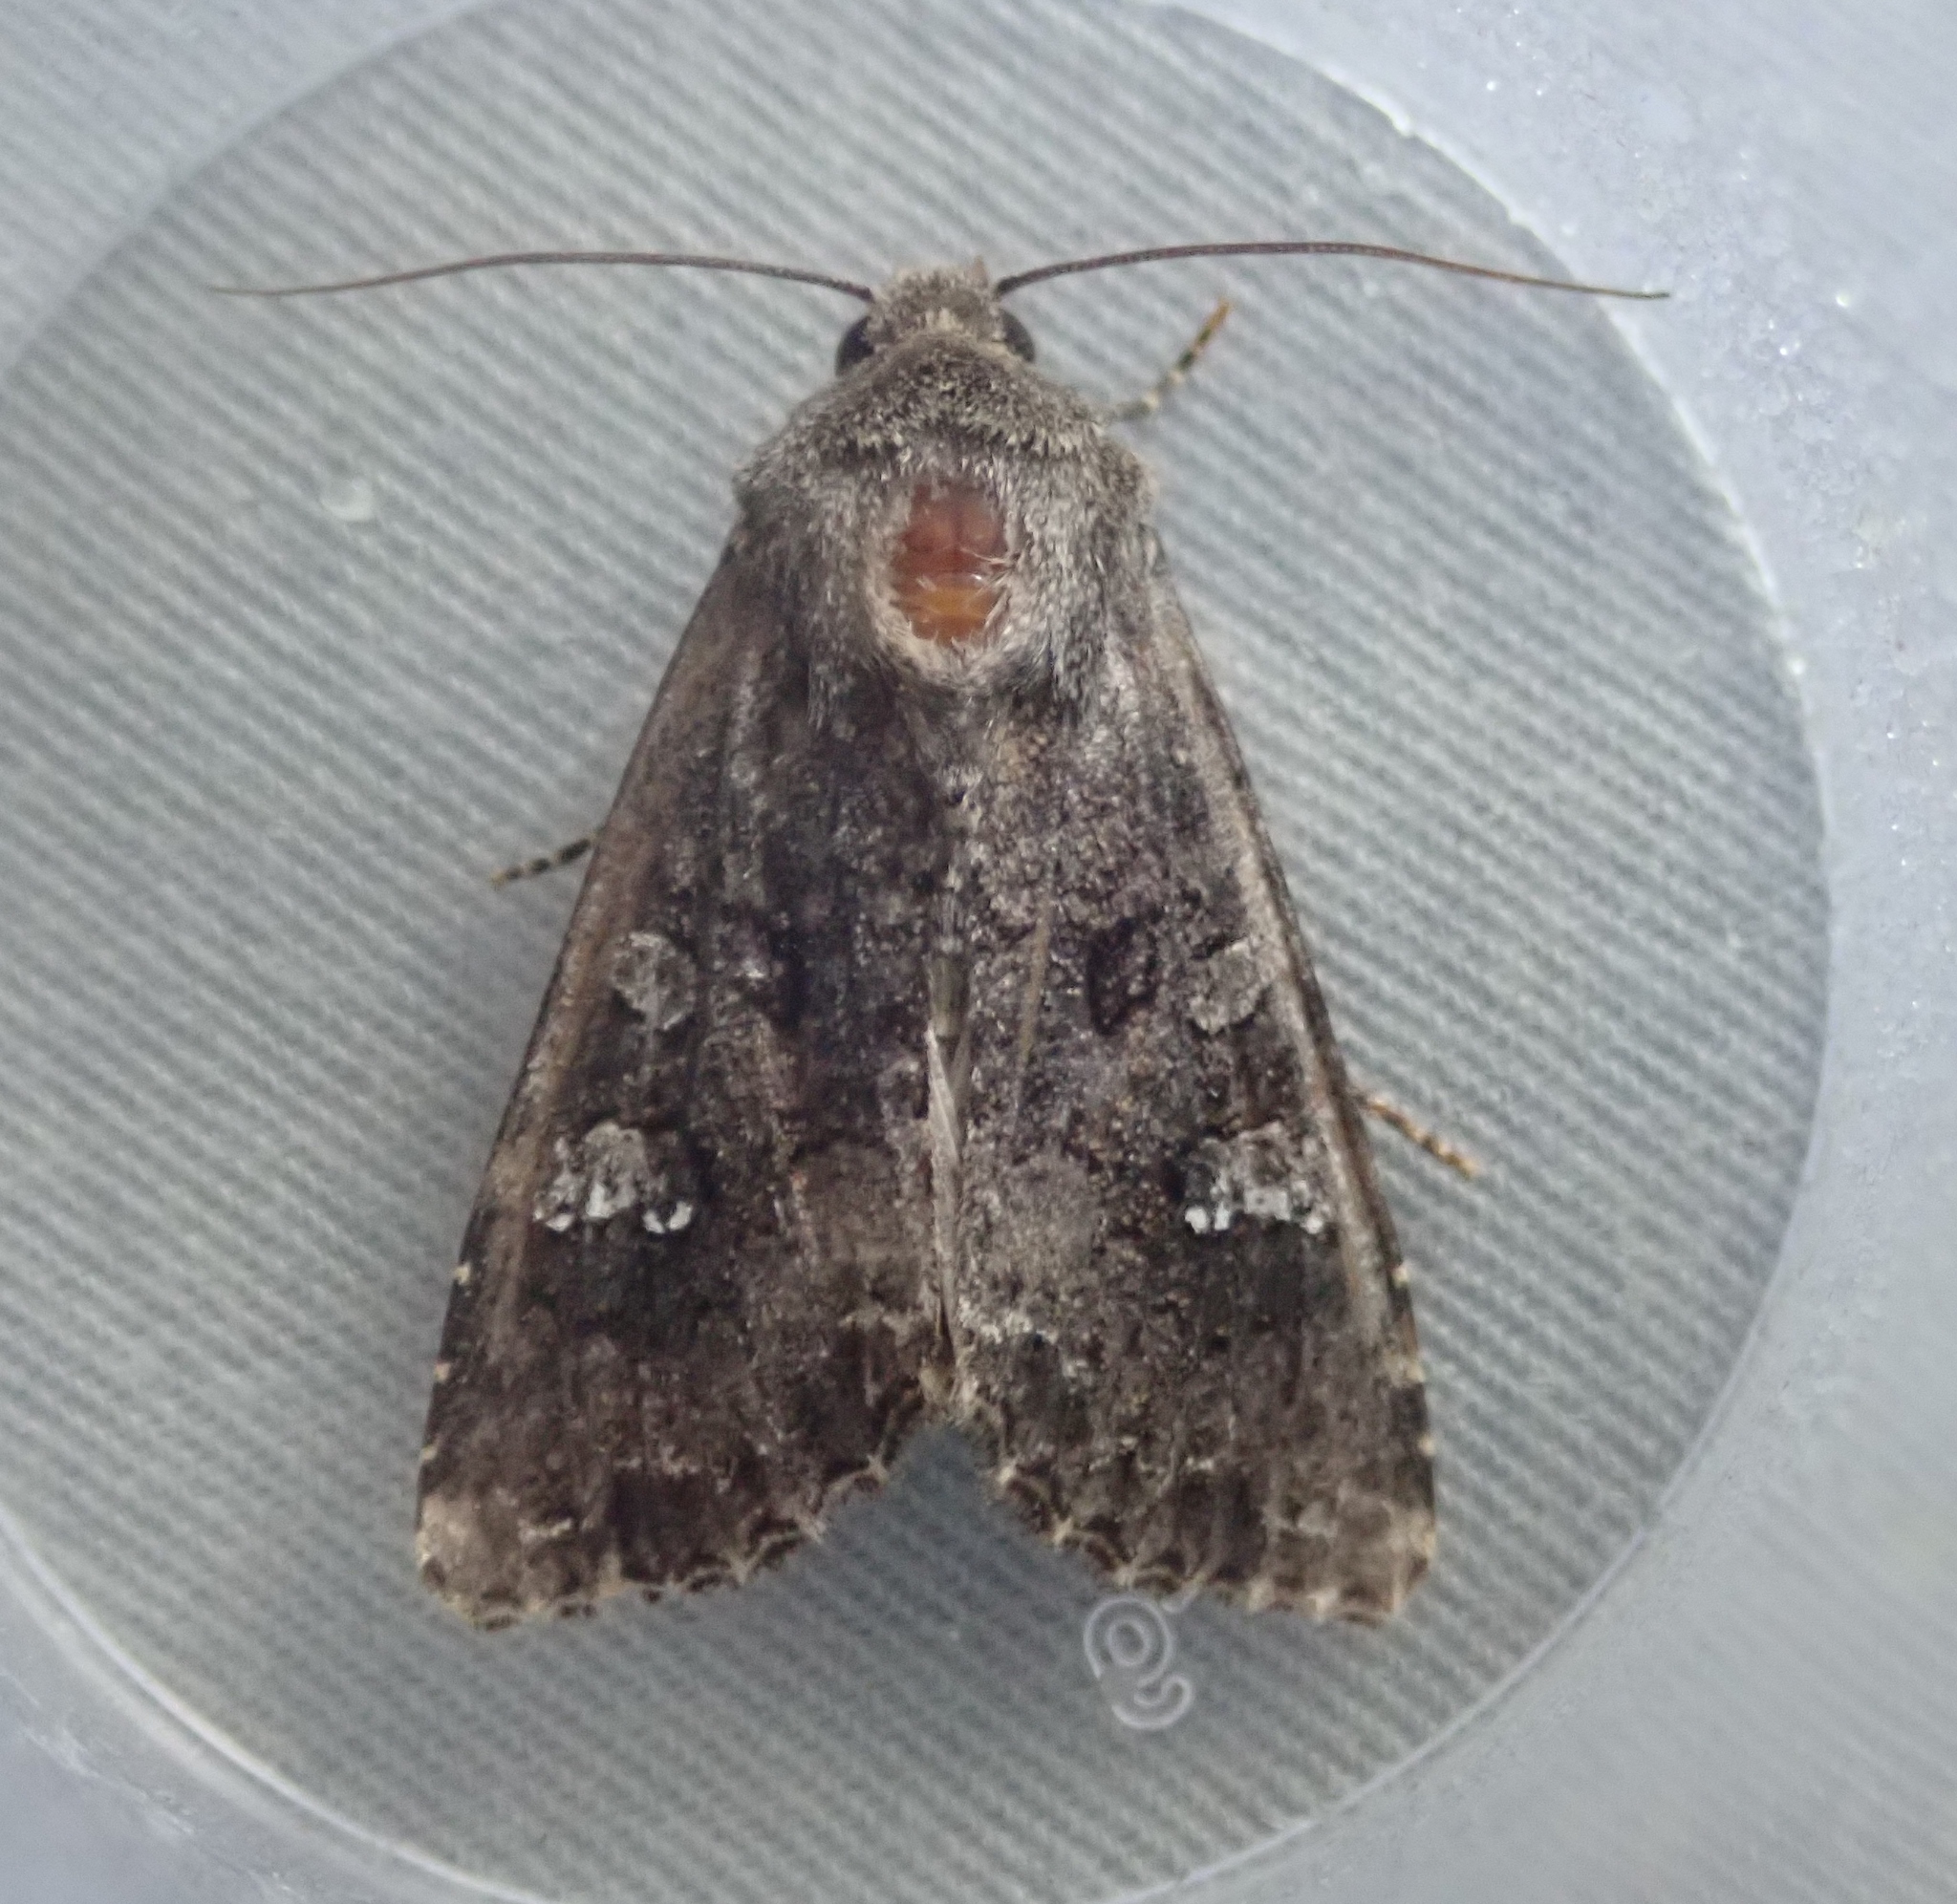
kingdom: Animalia
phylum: Arthropoda
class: Insecta
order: Lepidoptera
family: Noctuidae
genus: Mamestra
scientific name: Mamestra brassicae
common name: Cabbage moth
